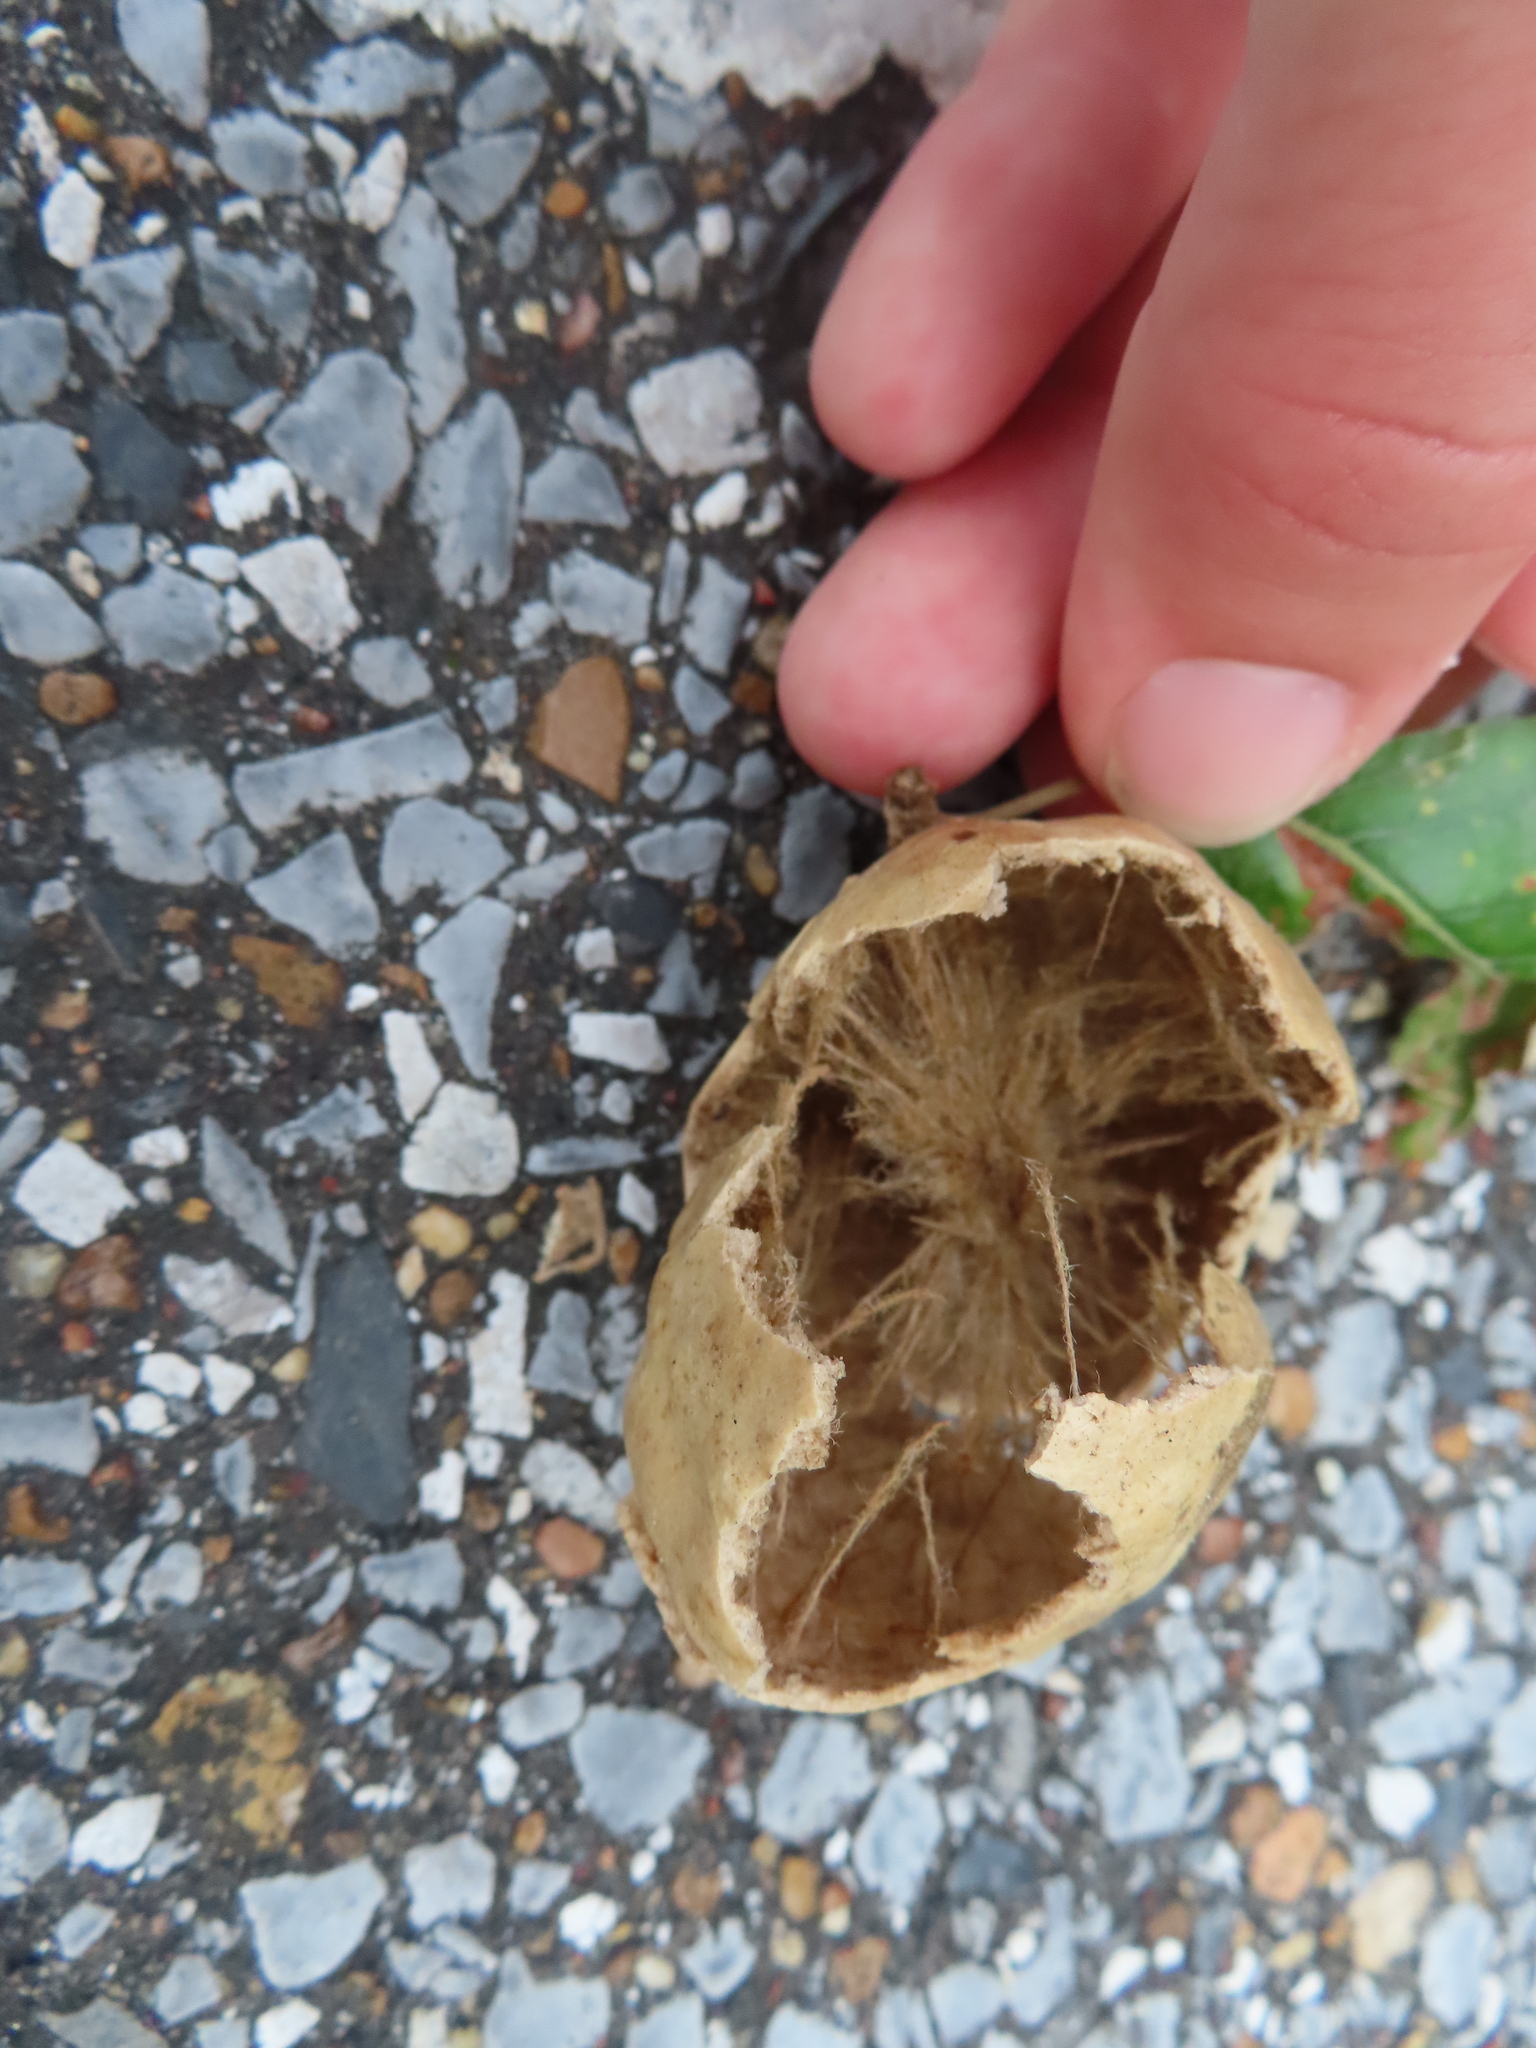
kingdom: Animalia
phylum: Arthropoda
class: Insecta
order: Hymenoptera
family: Cynipidae
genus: Amphibolips
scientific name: Amphibolips
